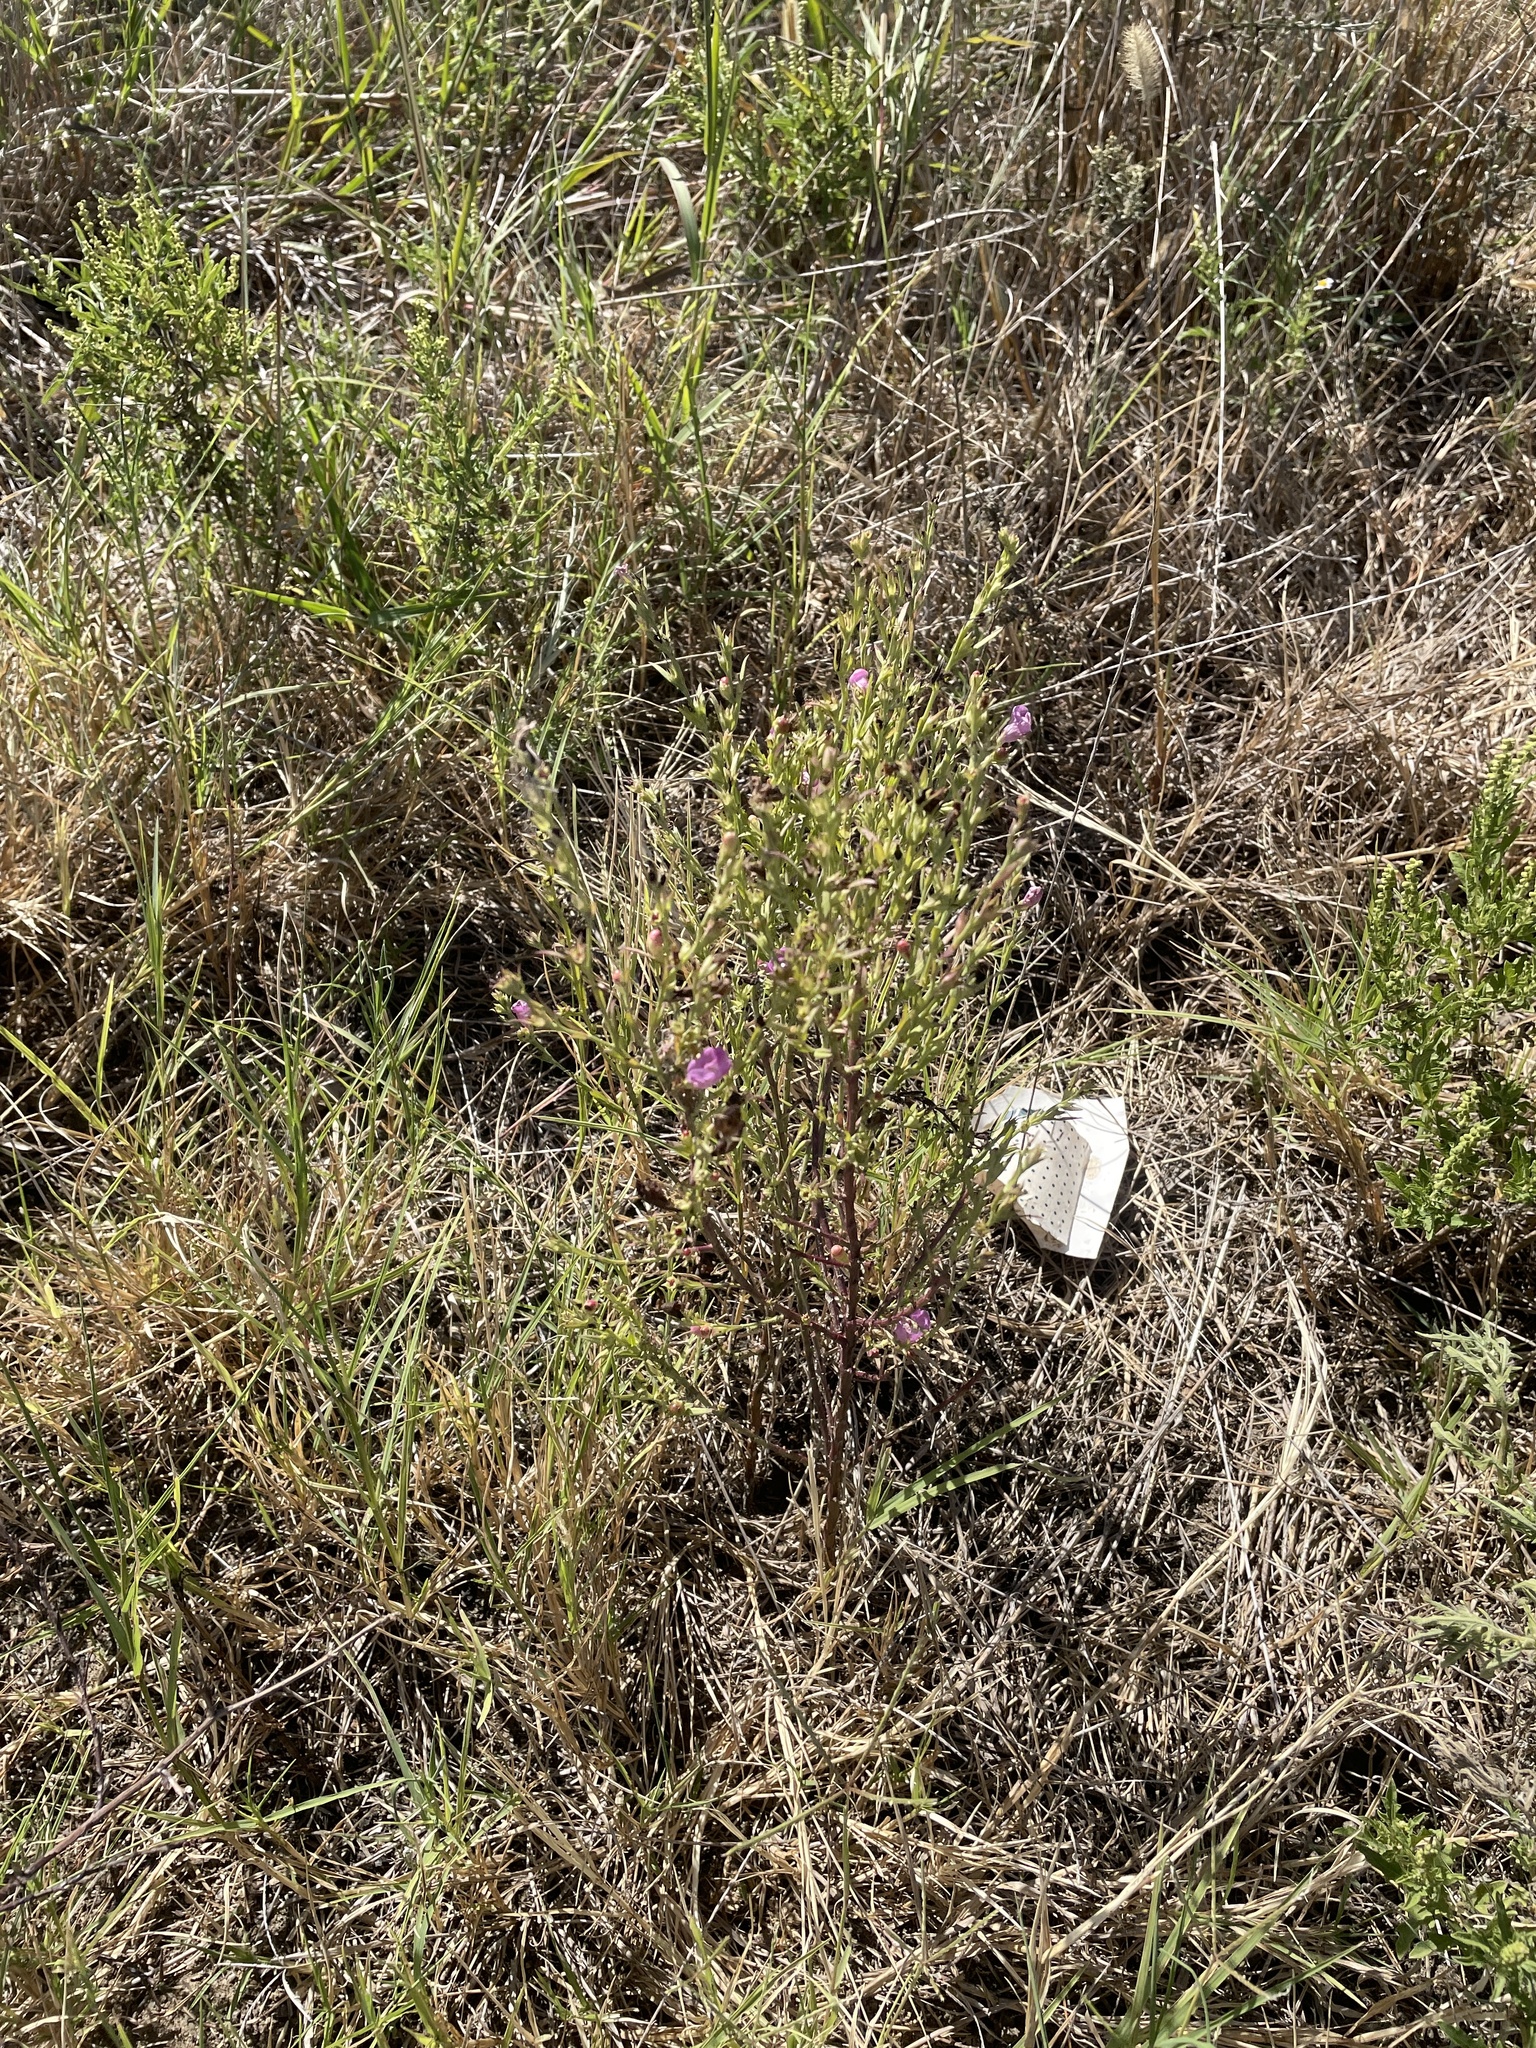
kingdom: Plantae
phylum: Tracheophyta
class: Magnoliopsida
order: Lamiales
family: Orobanchaceae
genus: Agalinis
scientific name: Agalinis heterophylla
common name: Prairie agalinis
